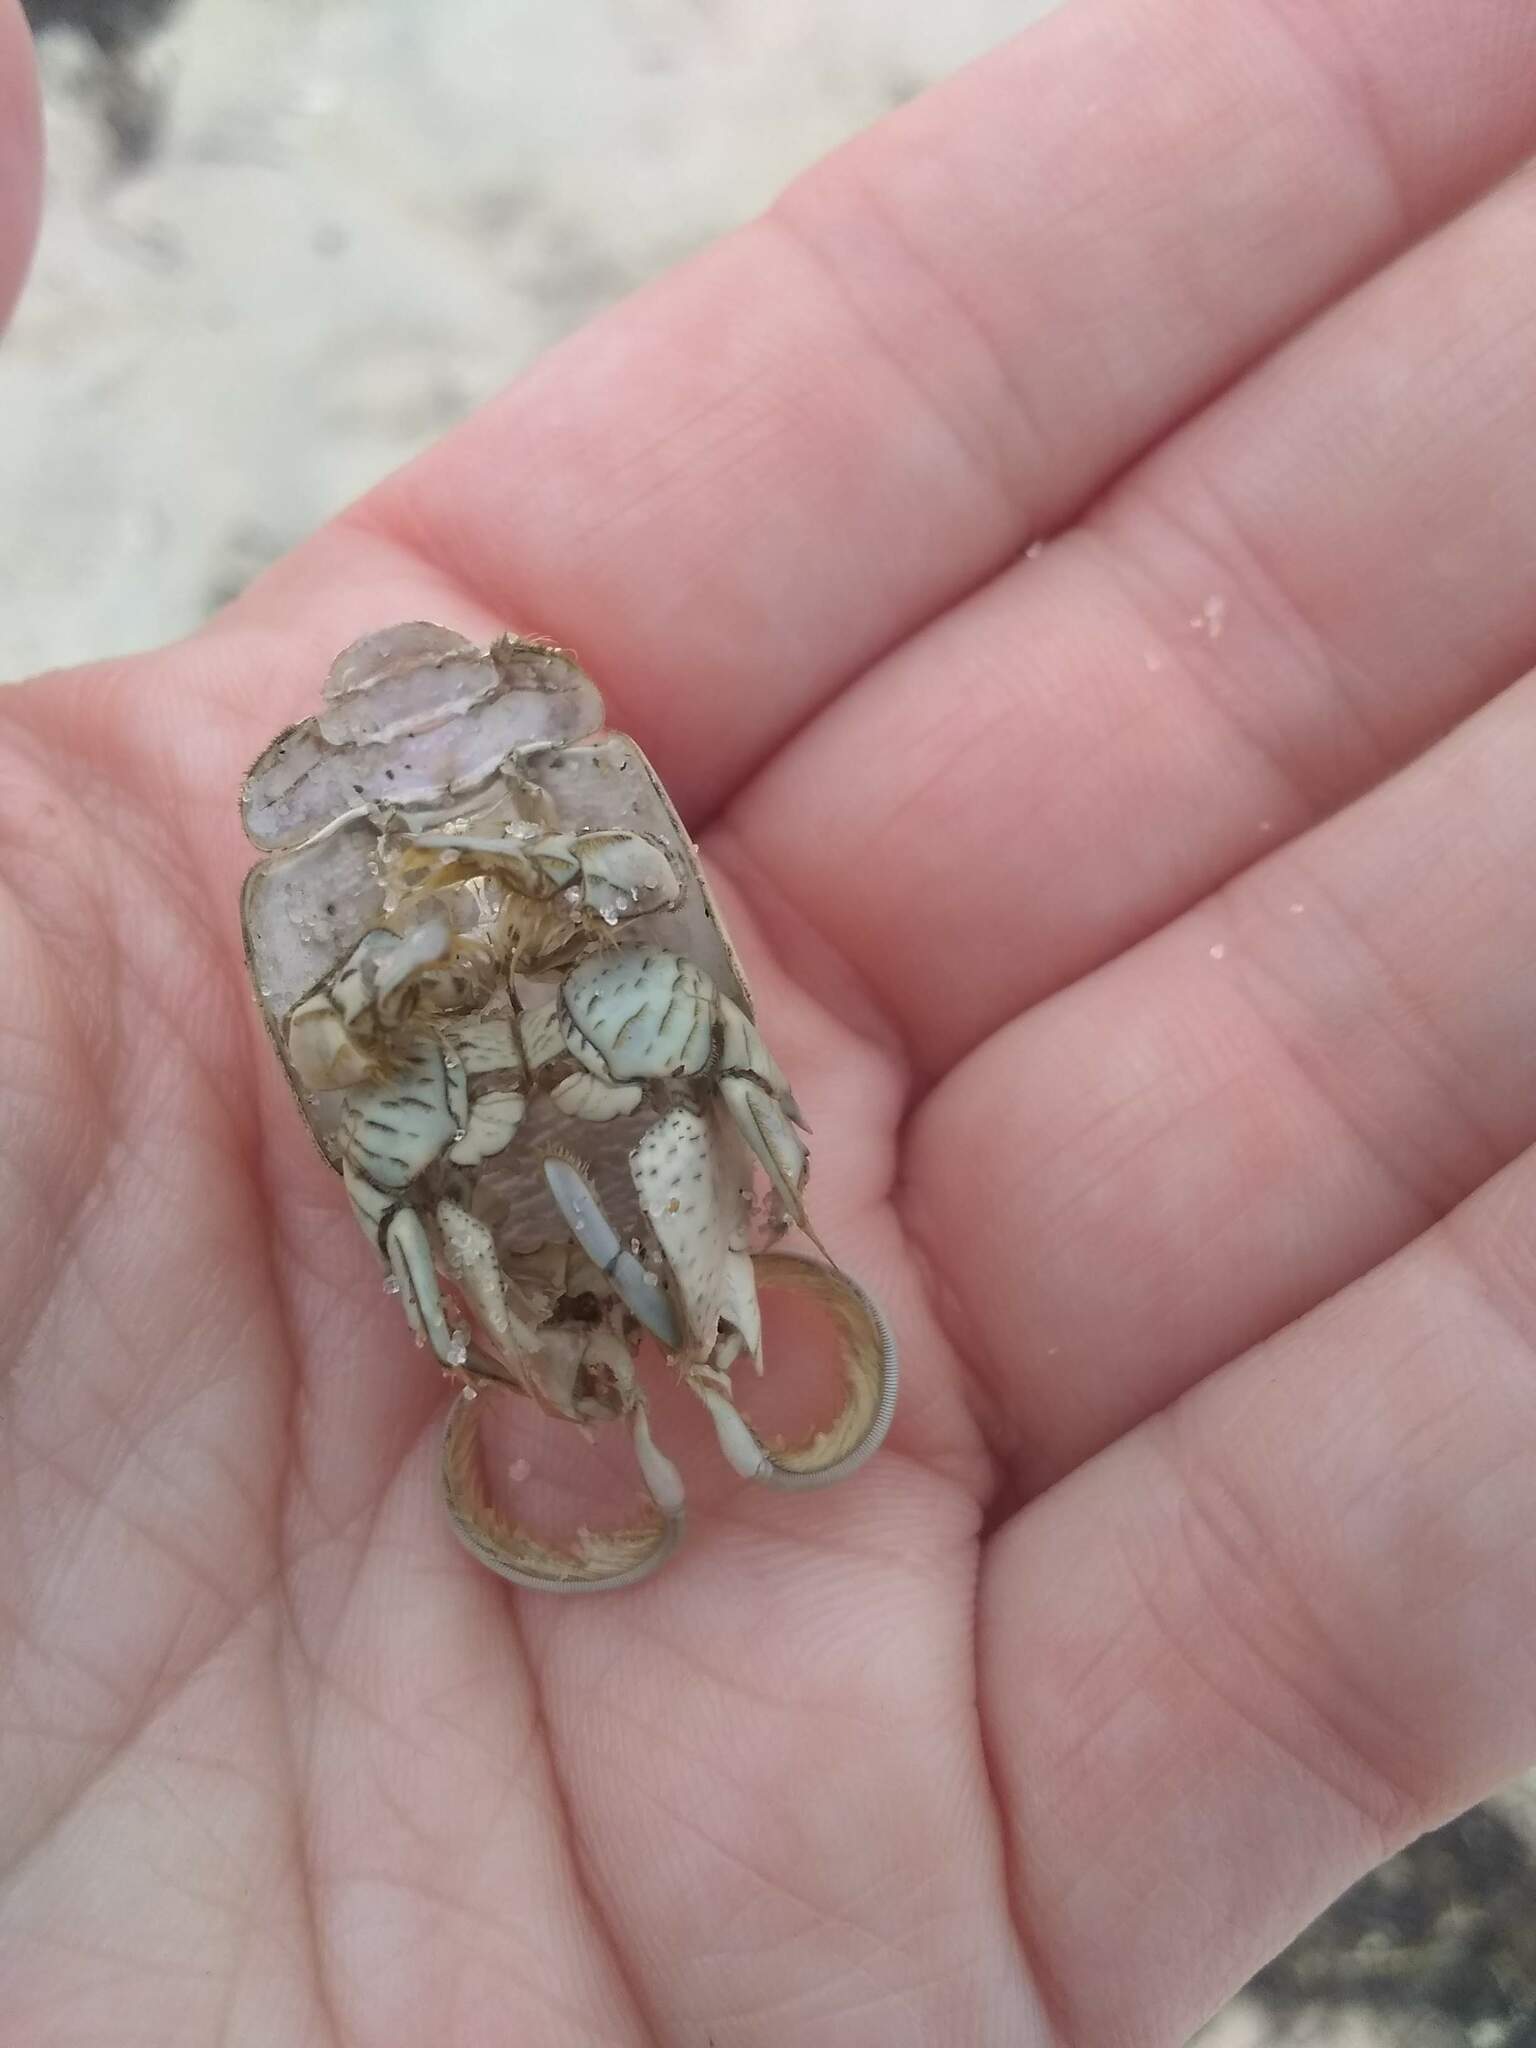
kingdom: Animalia
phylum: Arthropoda
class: Malacostraca
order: Decapoda
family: Hippidae
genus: Emerita
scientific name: Emerita talpoida
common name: Atlantic sand crab
